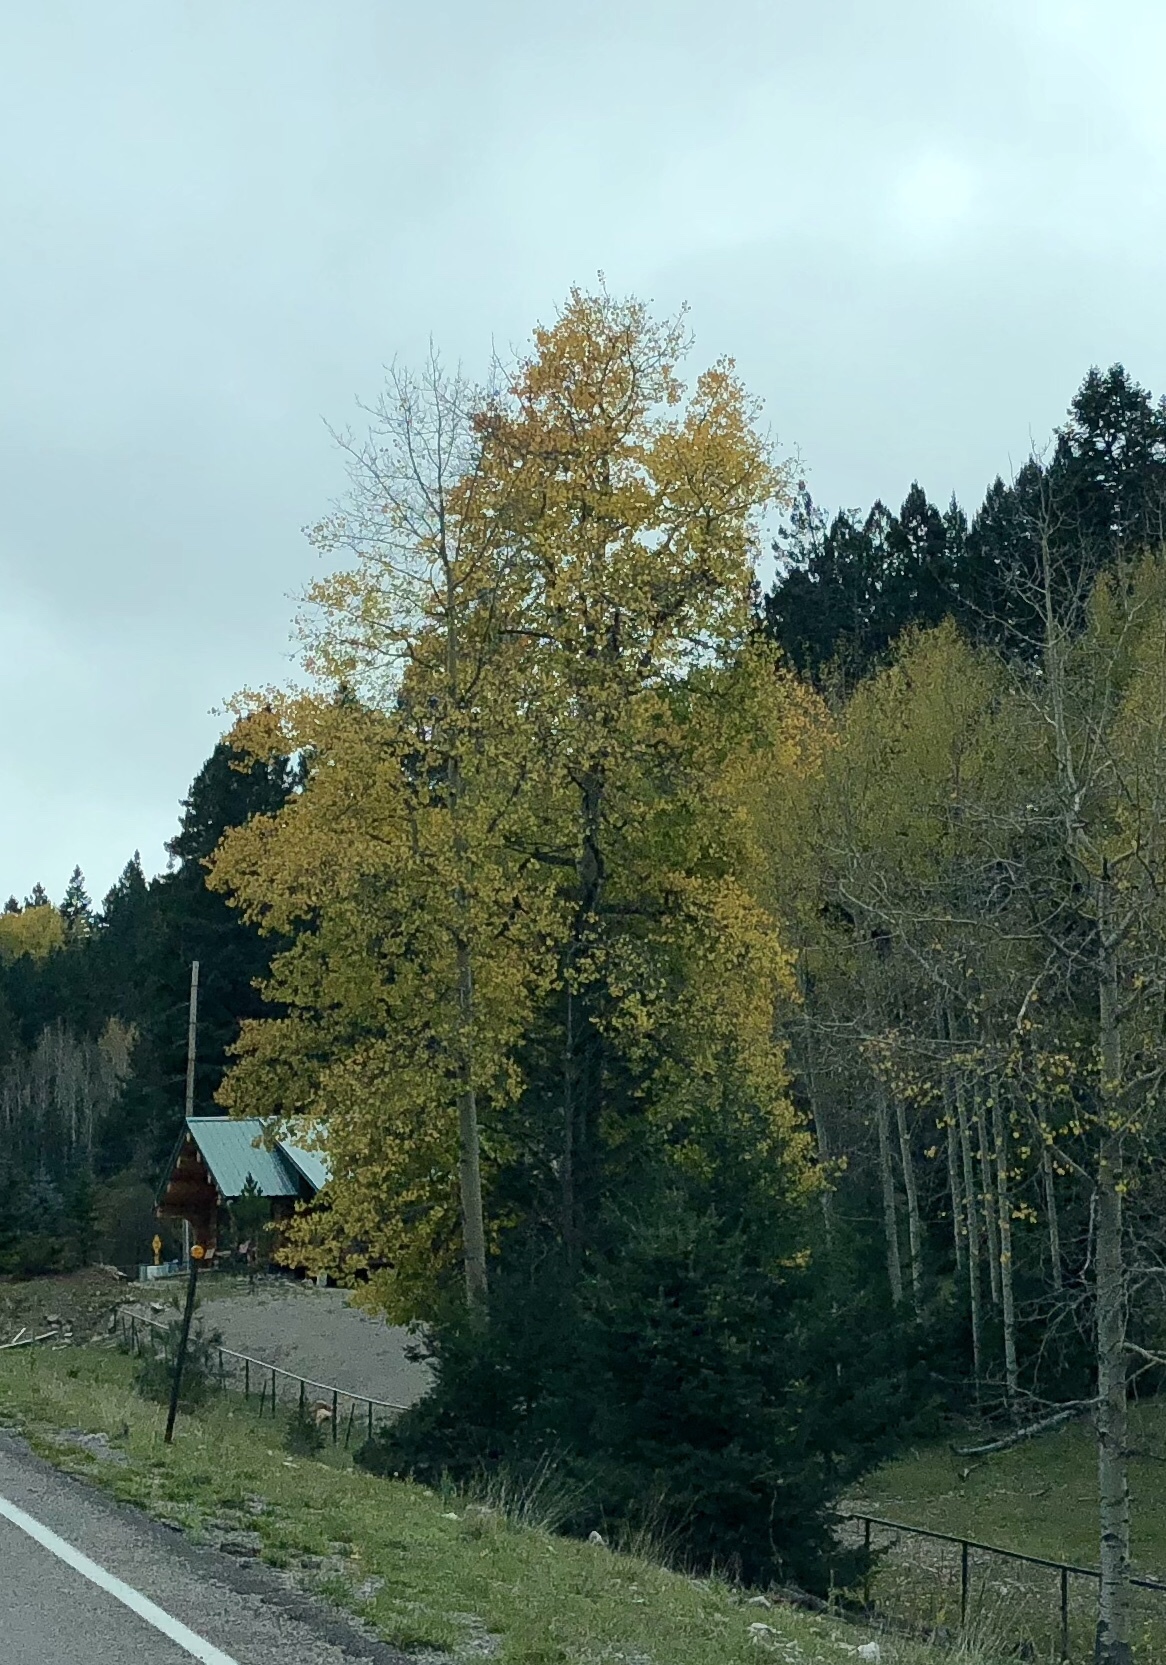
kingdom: Plantae
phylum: Tracheophyta
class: Magnoliopsida
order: Malpighiales
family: Salicaceae
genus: Populus
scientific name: Populus tremuloides
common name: Quaking aspen
